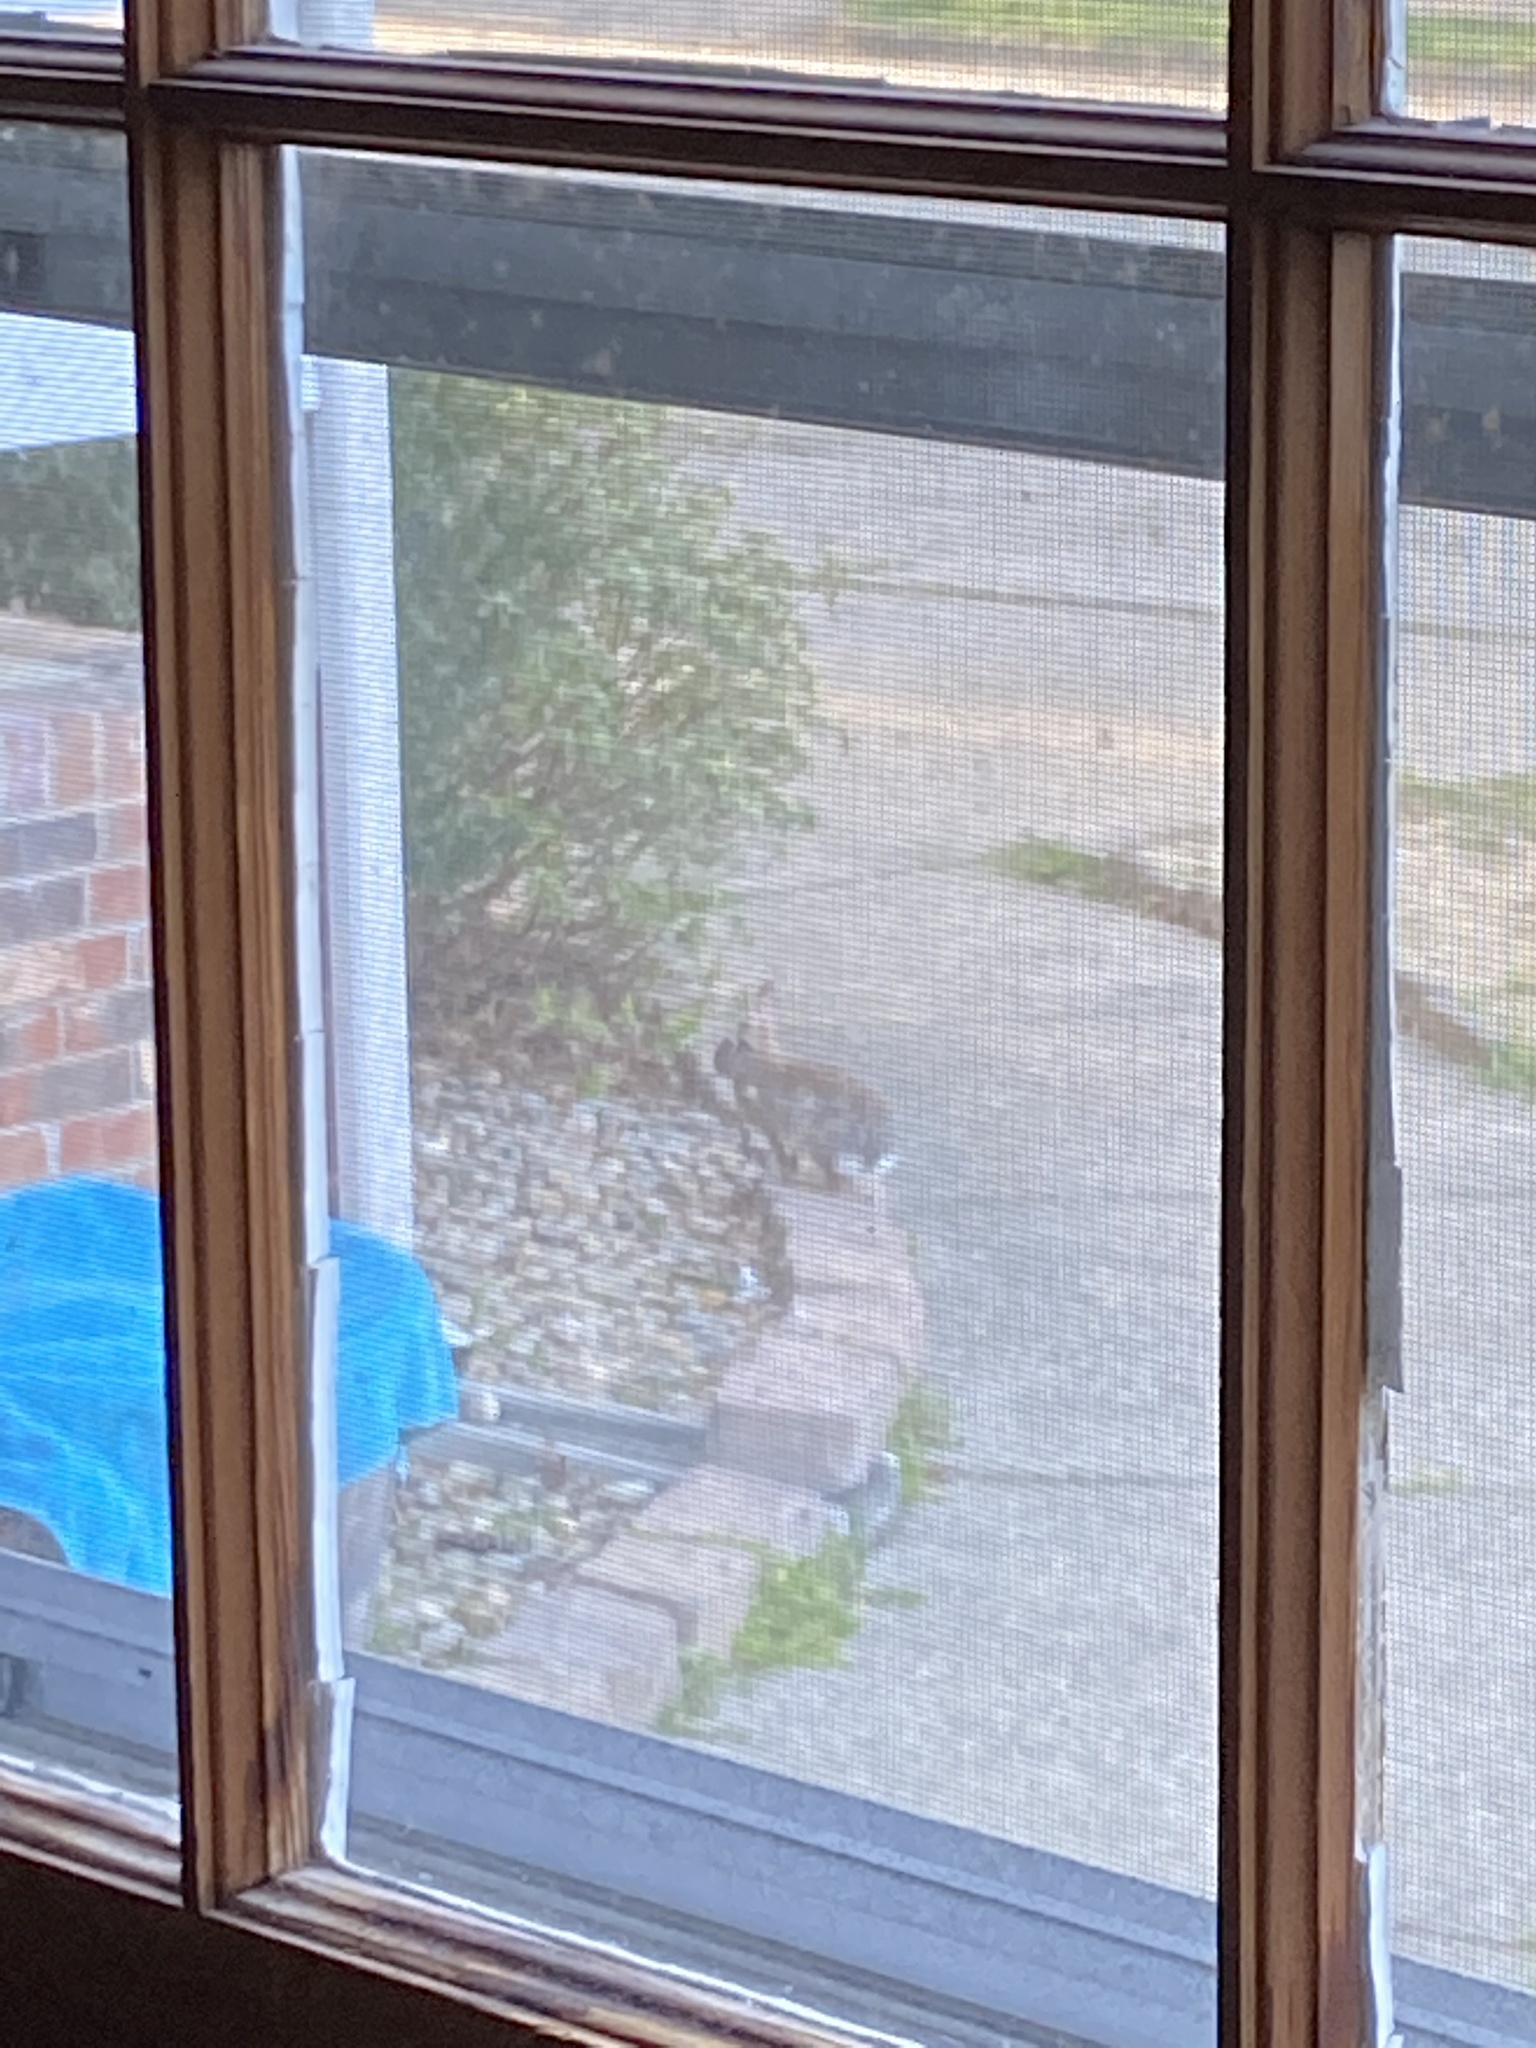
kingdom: Animalia
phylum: Chordata
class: Mammalia
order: Lagomorpha
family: Leporidae
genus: Sylvilagus
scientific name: Sylvilagus floridanus
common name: Eastern cottontail
